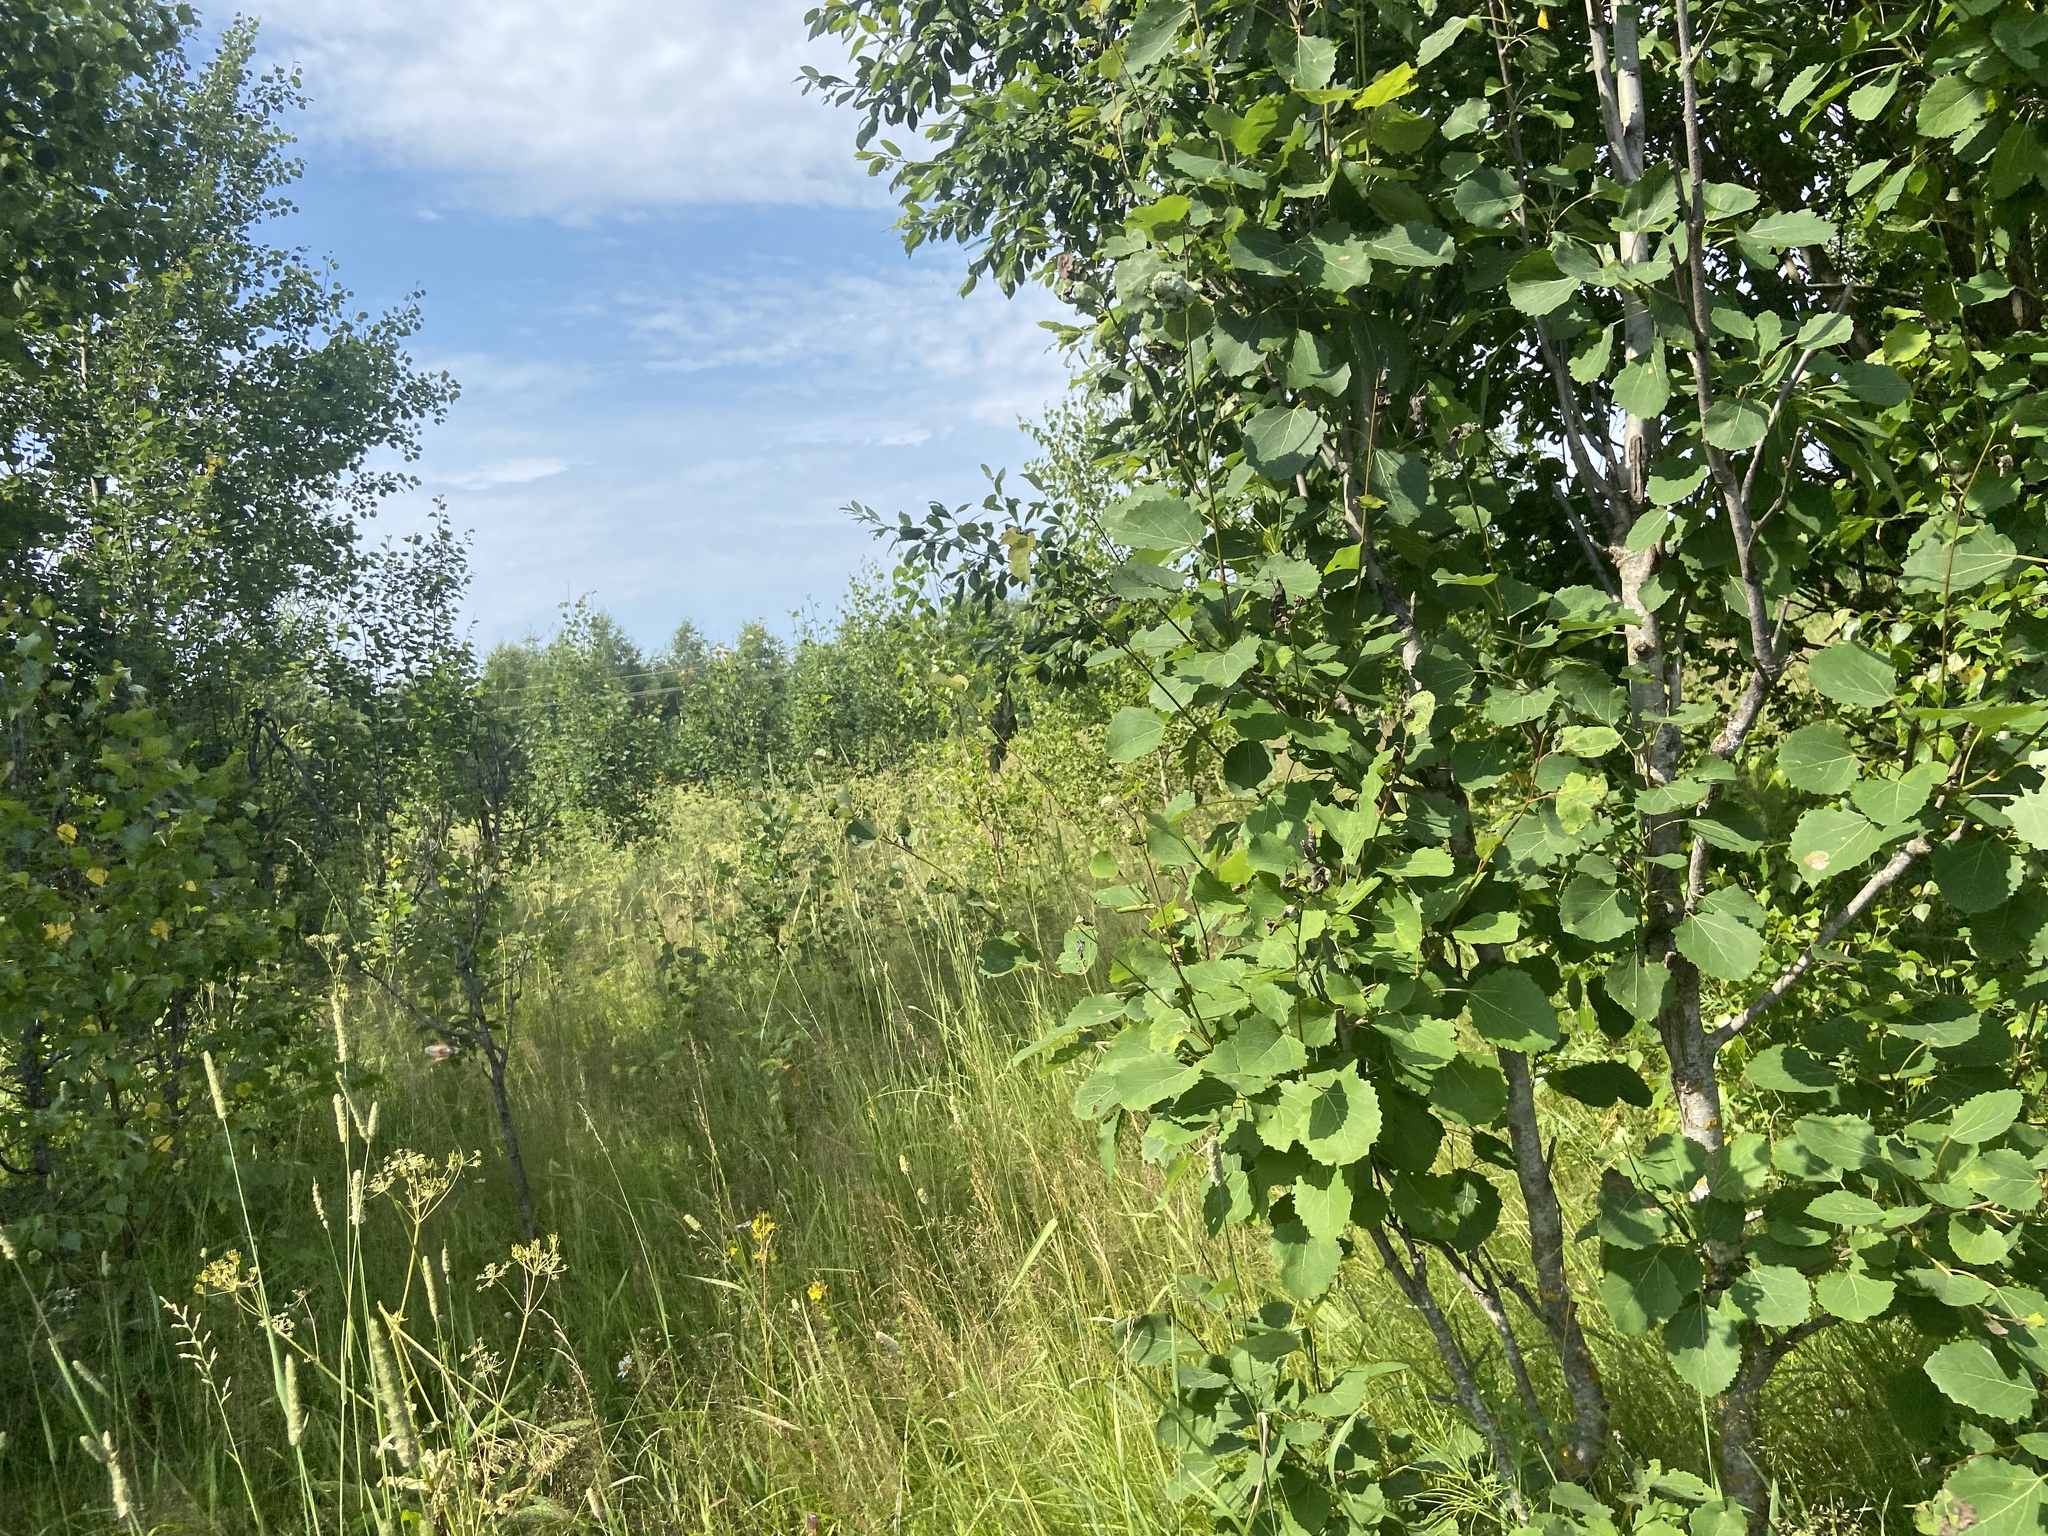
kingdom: Plantae
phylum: Tracheophyta
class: Magnoliopsida
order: Malpighiales
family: Salicaceae
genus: Populus
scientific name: Populus tremula
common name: European aspen
